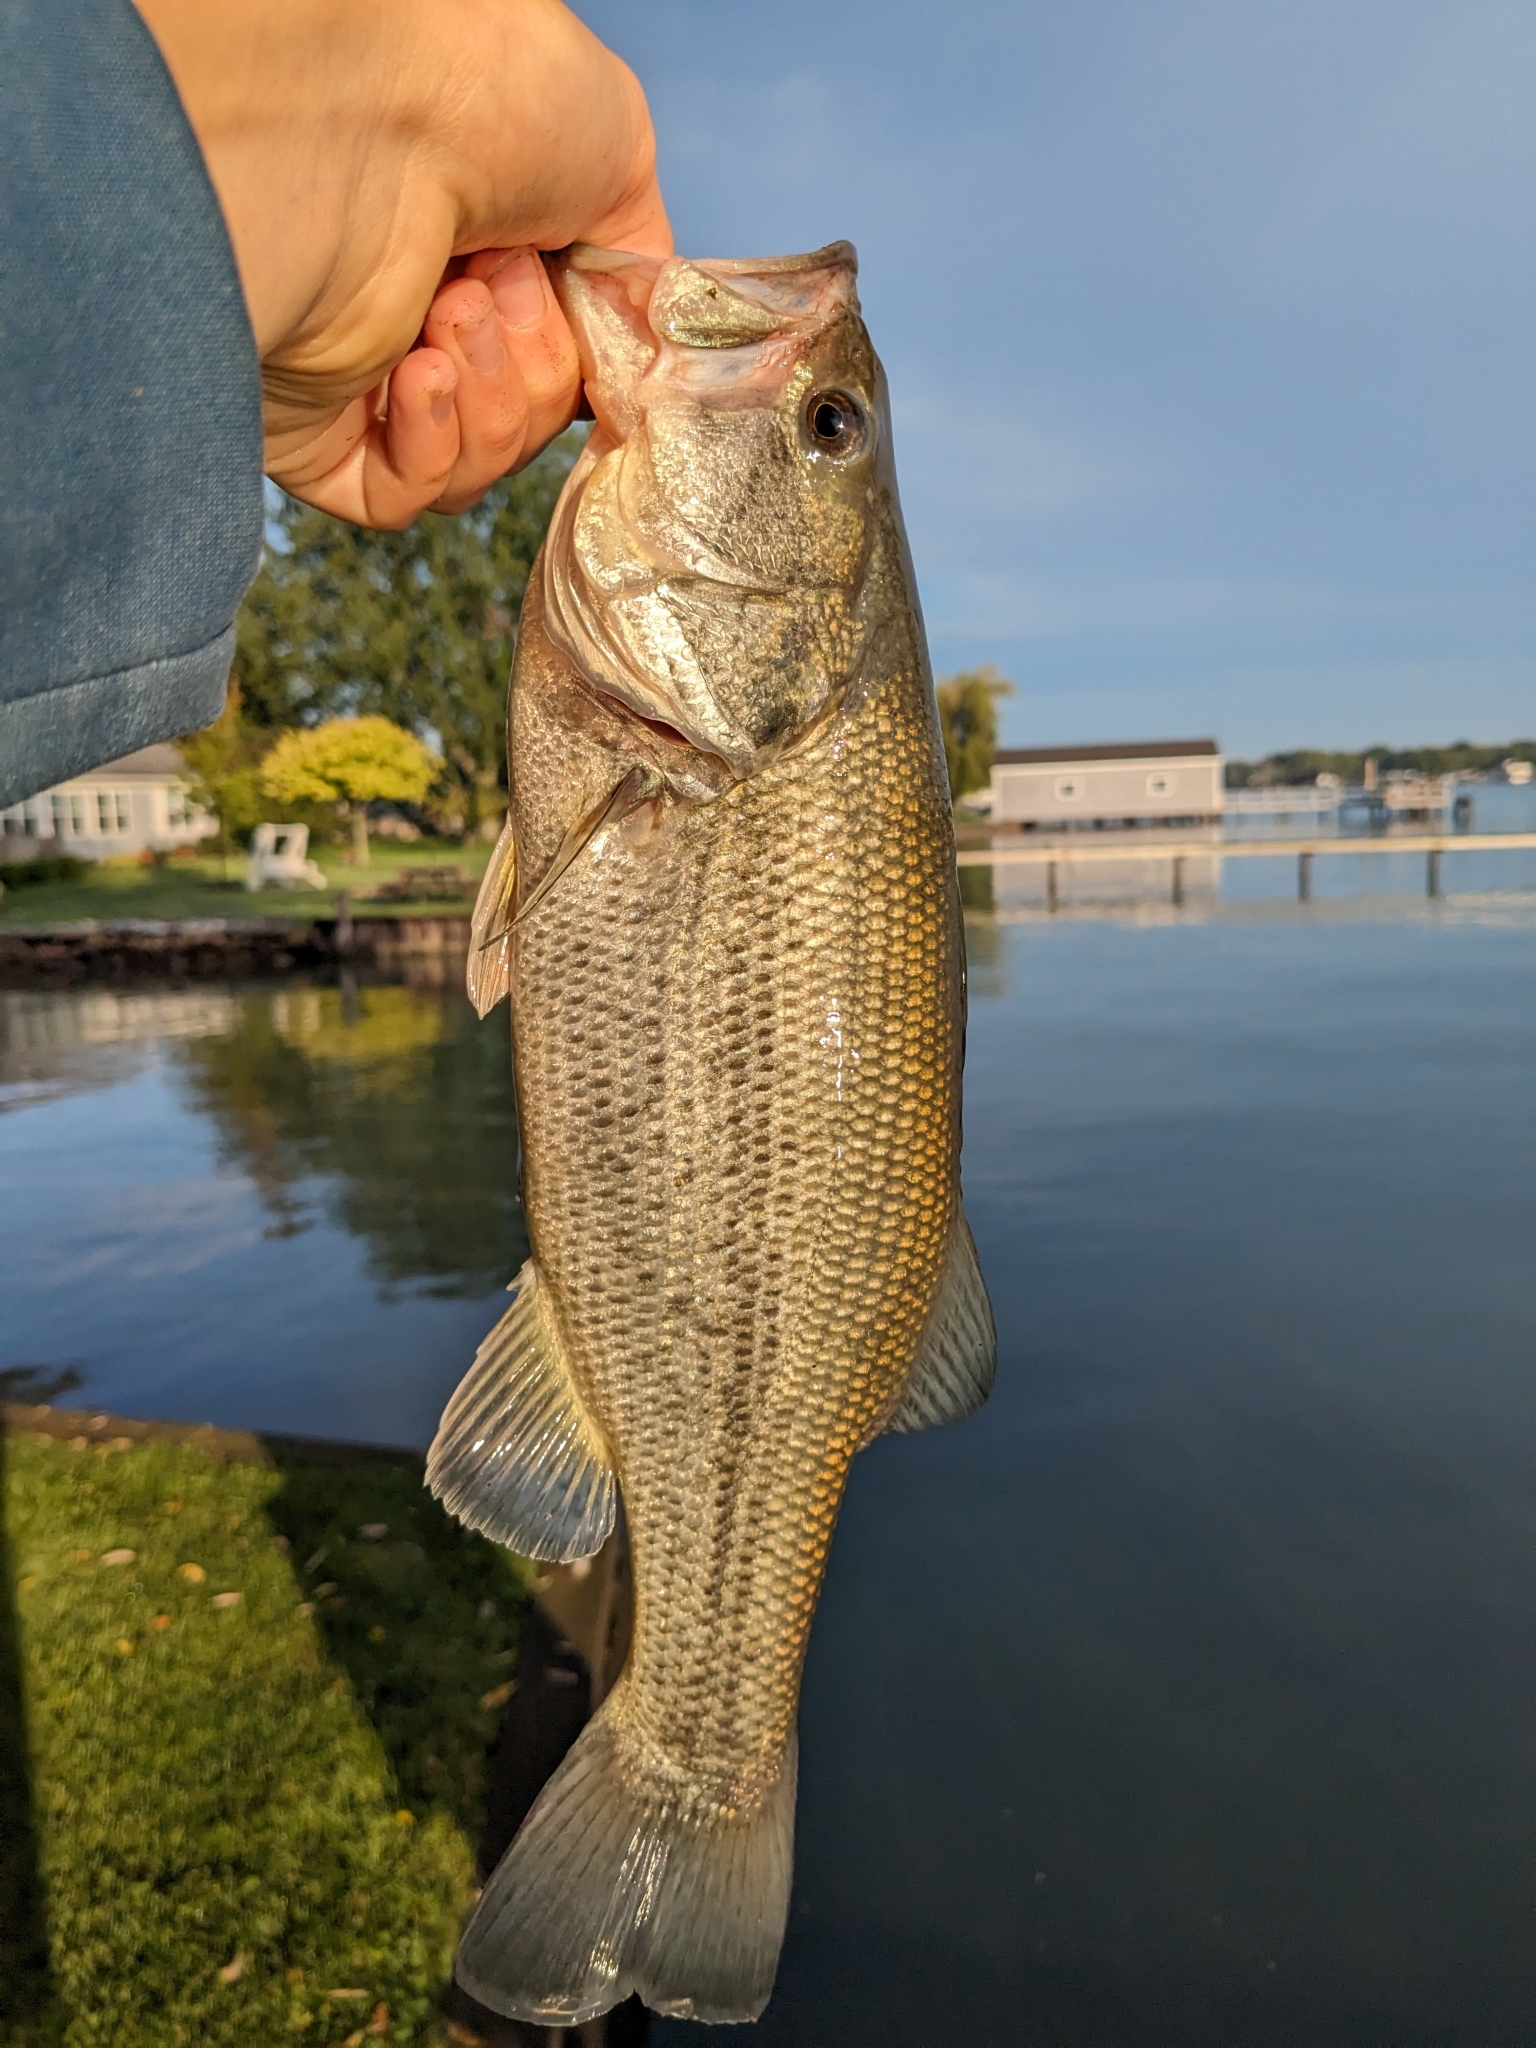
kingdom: Animalia
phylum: Chordata
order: Perciformes
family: Centrarchidae
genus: Micropterus
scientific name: Micropterus
